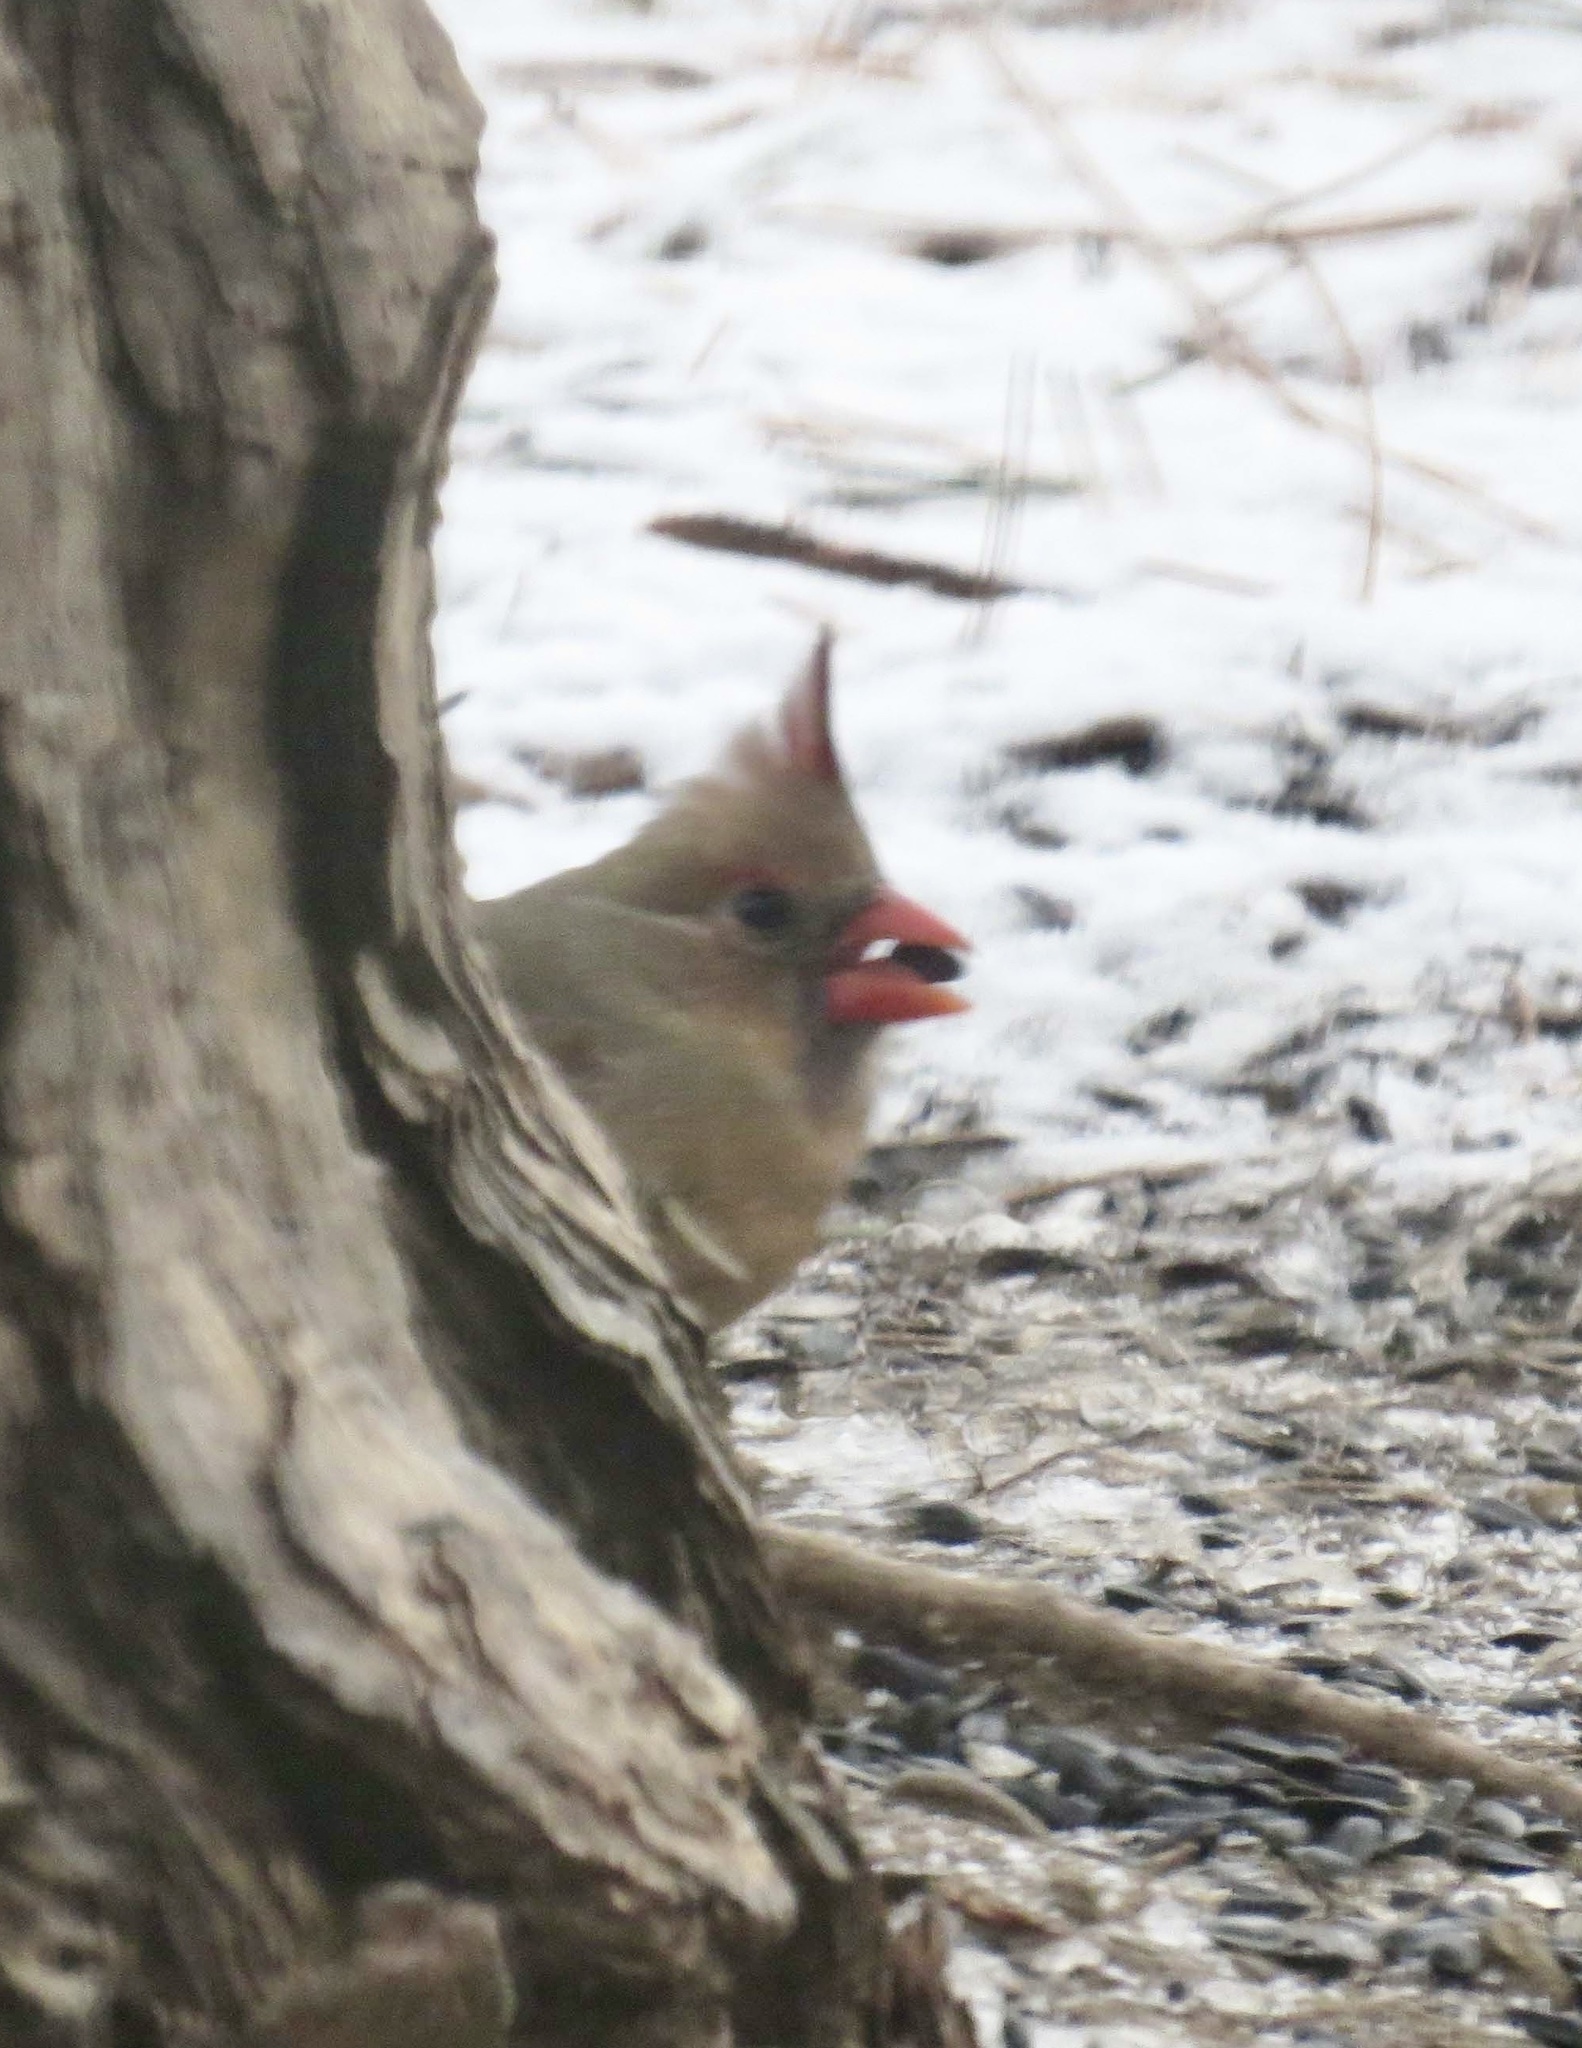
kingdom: Animalia
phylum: Chordata
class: Aves
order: Passeriformes
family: Cardinalidae
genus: Cardinalis
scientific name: Cardinalis cardinalis
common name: Northern cardinal
